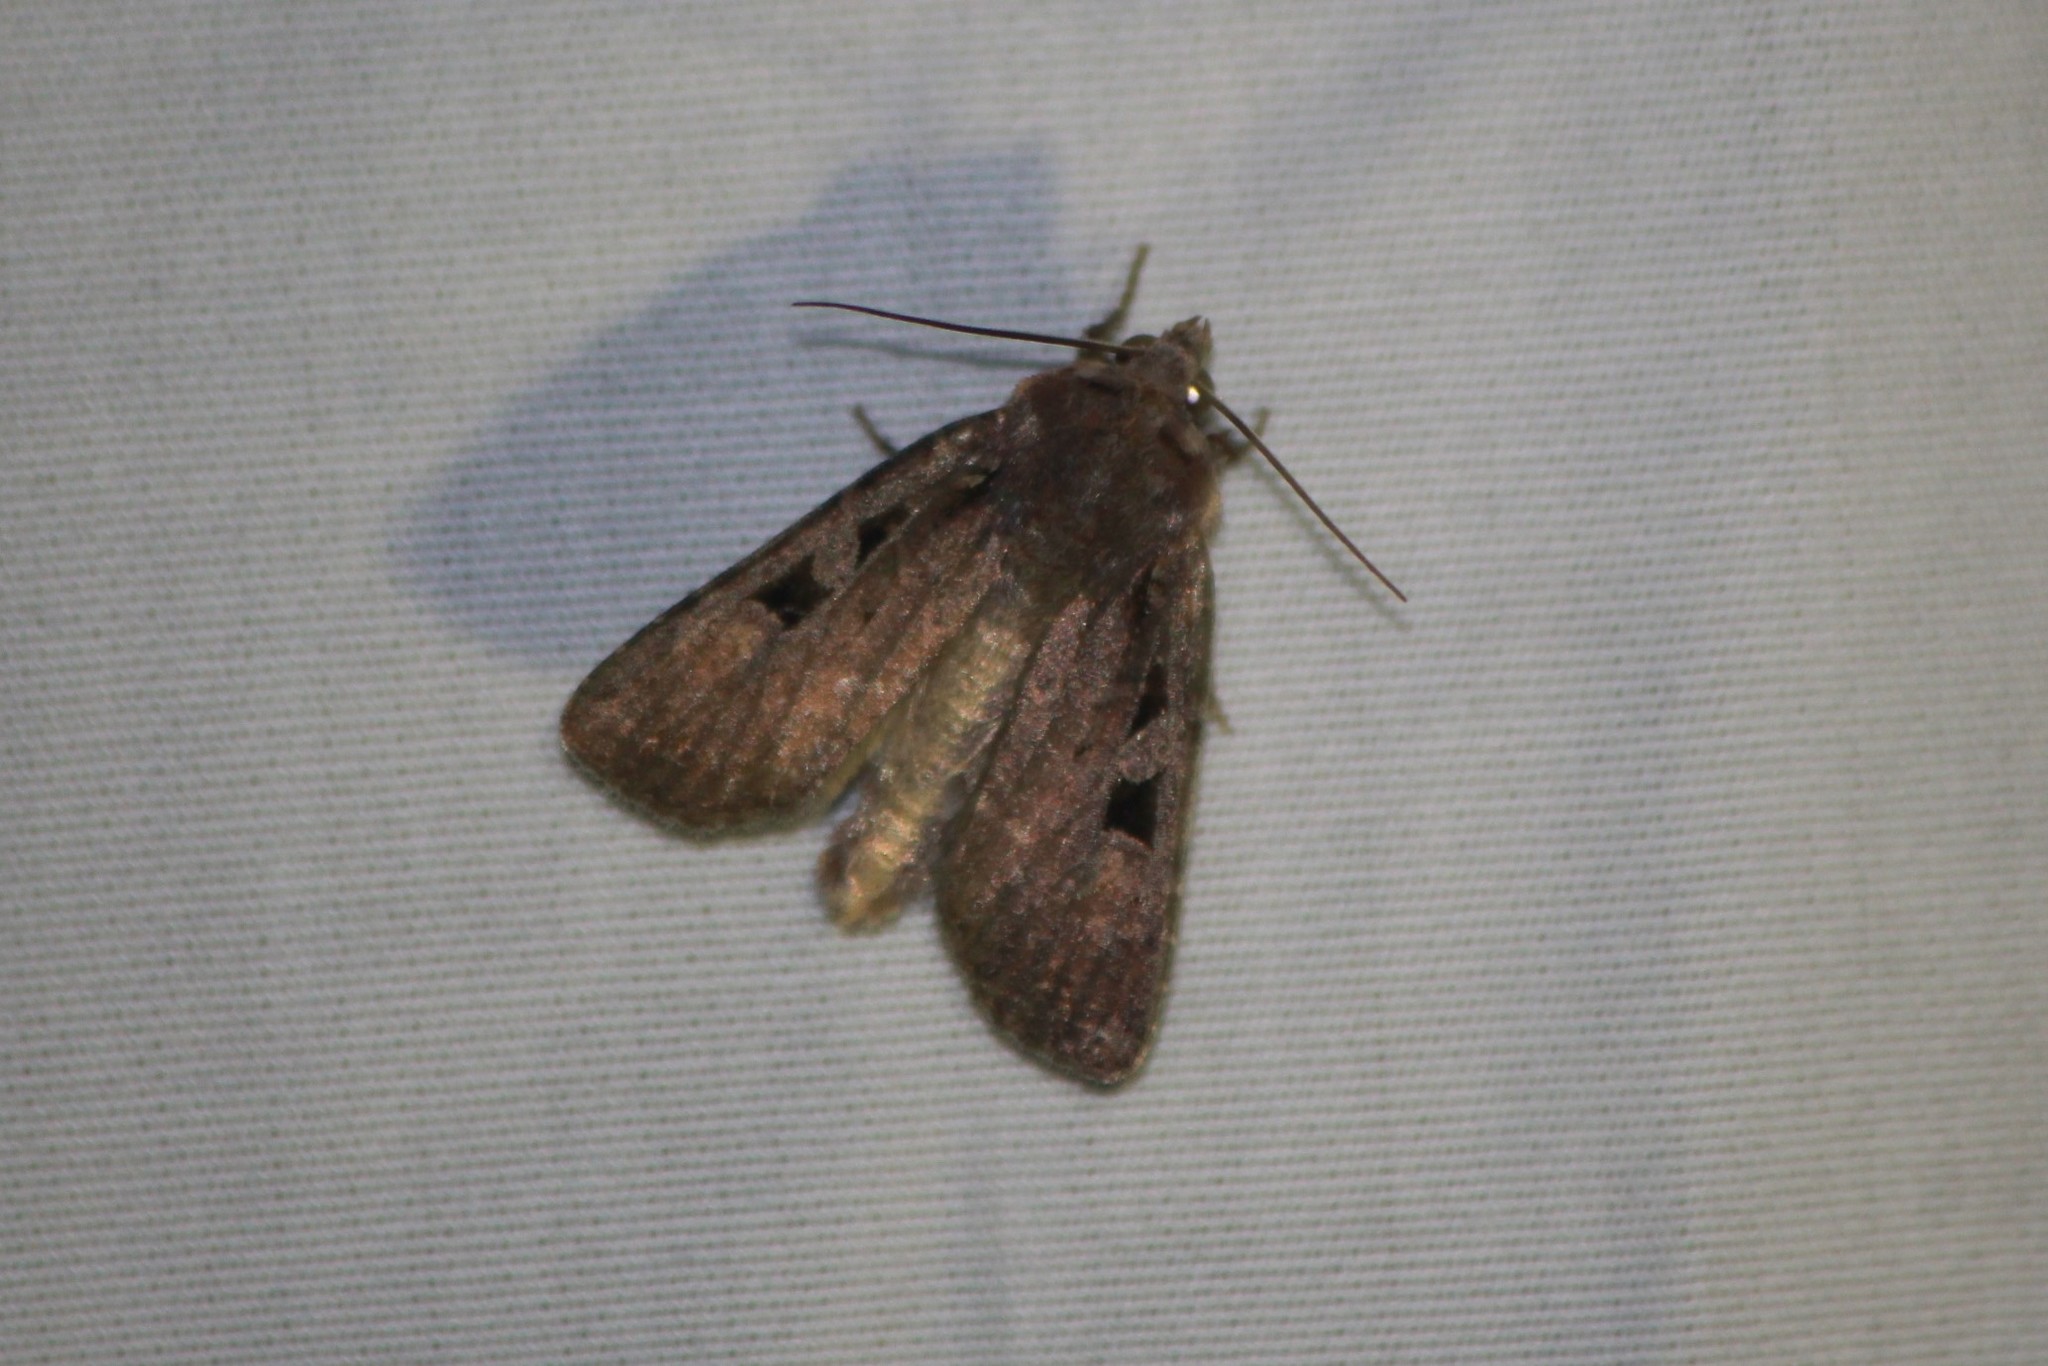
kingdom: Animalia
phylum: Arthropoda
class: Insecta
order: Lepidoptera
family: Noctuidae
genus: Euxoa
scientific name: Euxoa tessellata
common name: Striped cutworm
